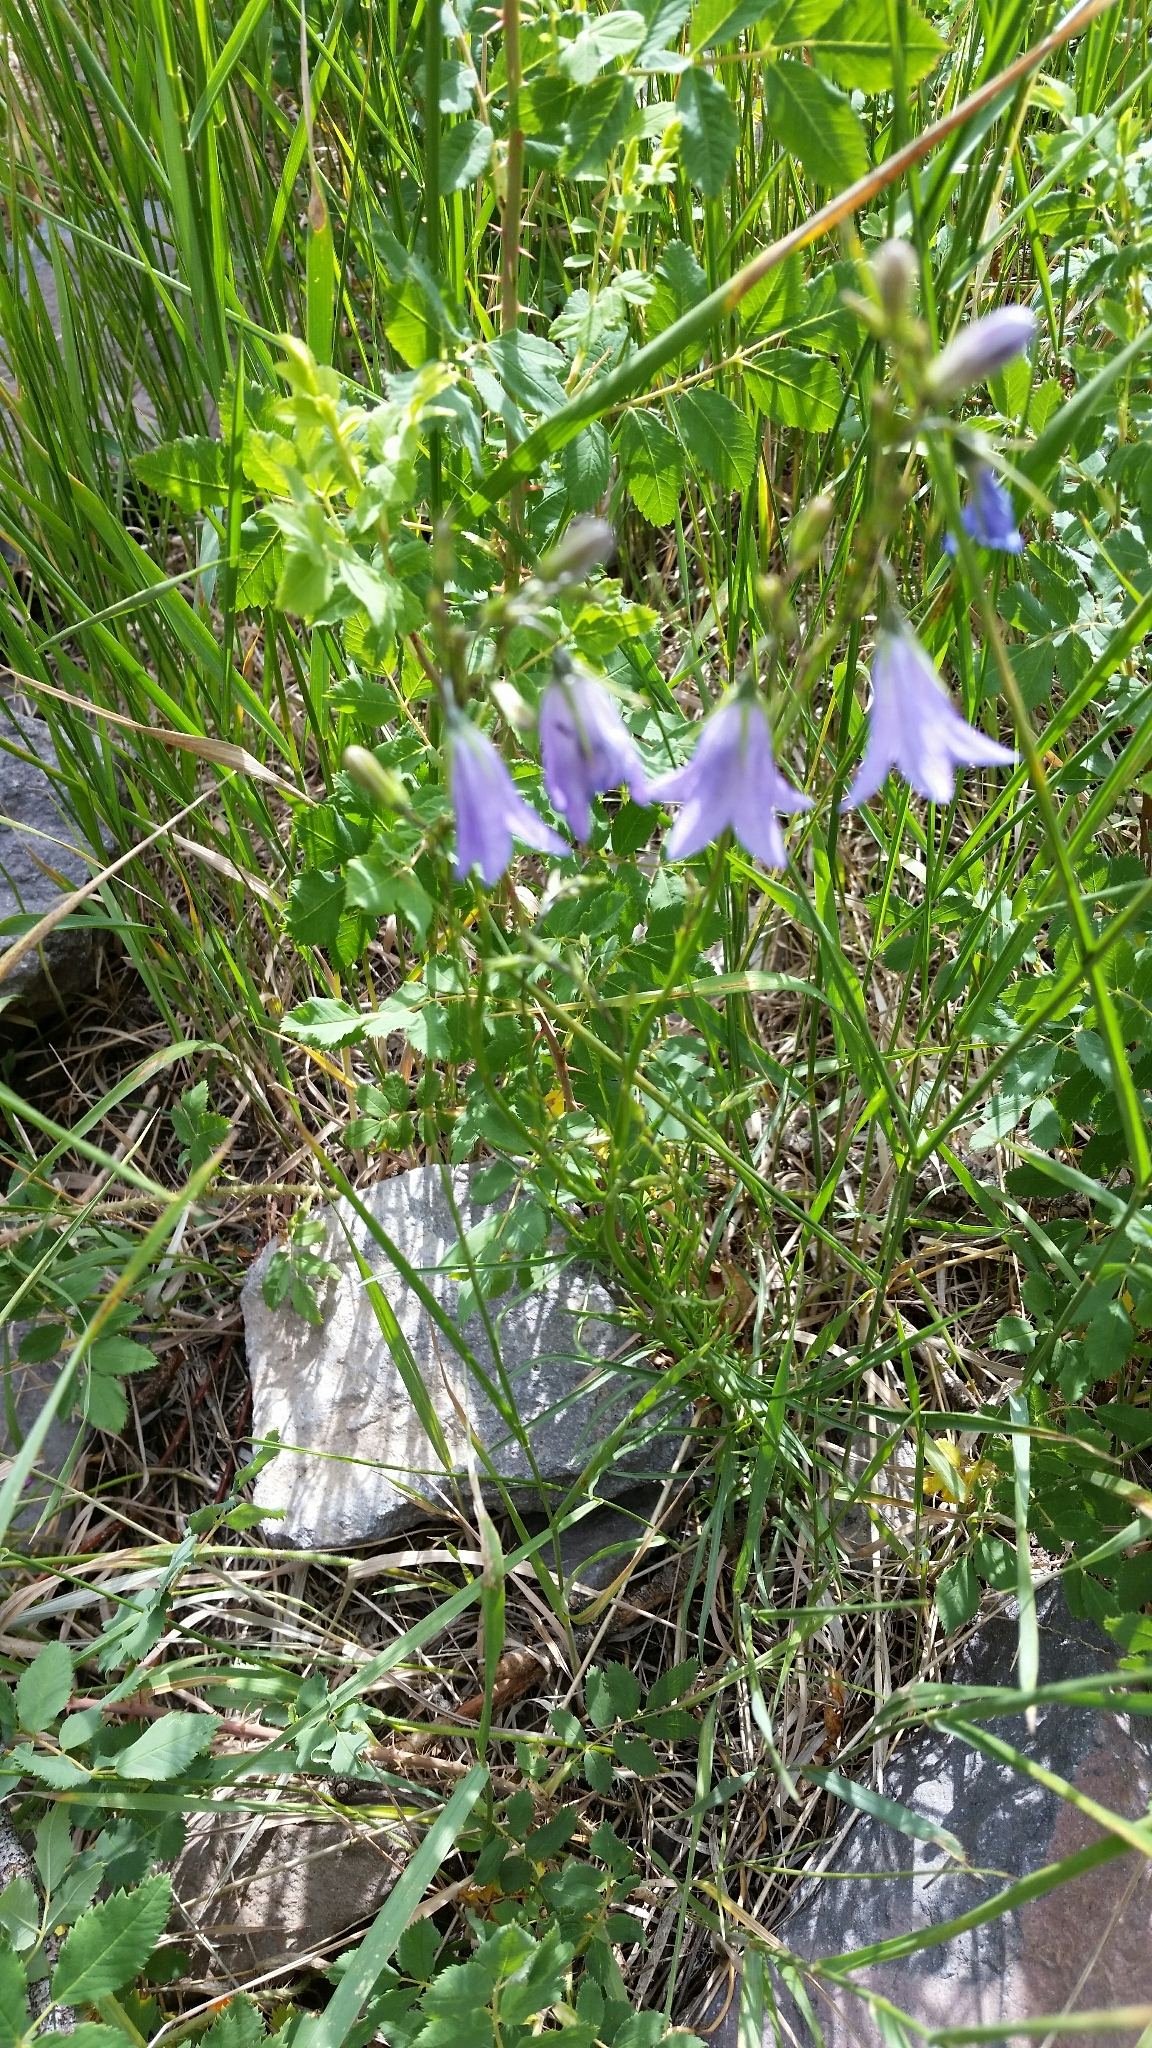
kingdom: Plantae
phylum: Tracheophyta
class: Magnoliopsida
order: Asterales
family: Campanulaceae
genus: Campanula
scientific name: Campanula petiolata
